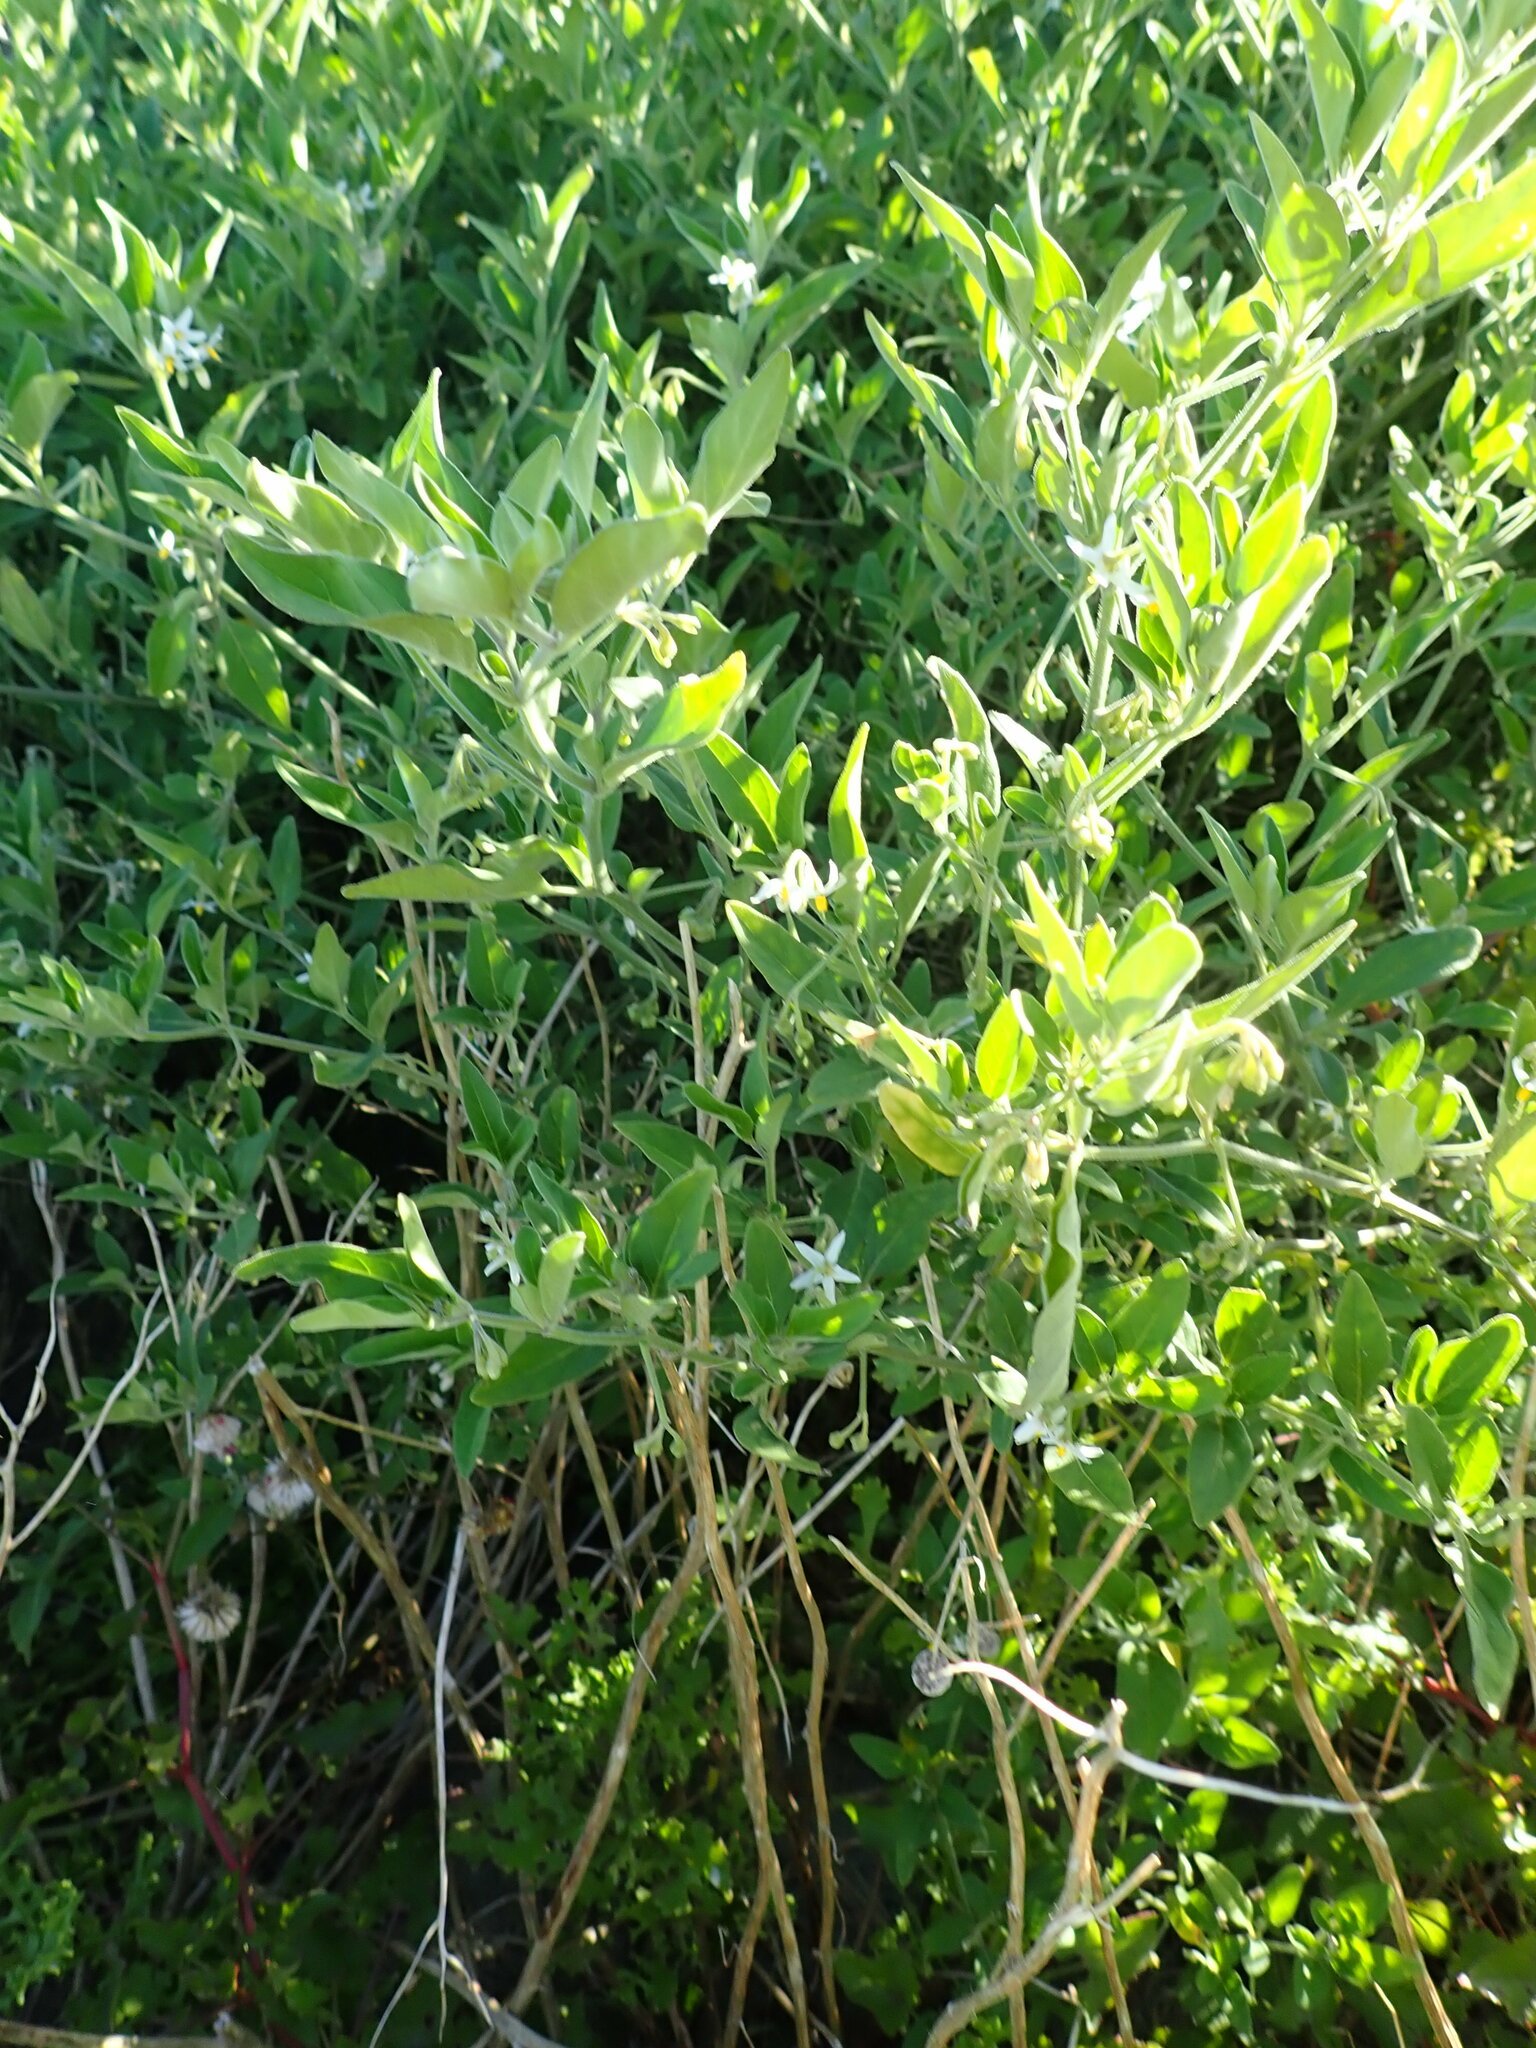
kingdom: Plantae
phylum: Tracheophyta
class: Magnoliopsida
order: Solanales
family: Solanaceae
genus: Solanum
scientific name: Solanum chenopodioides
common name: Tall nightshade
